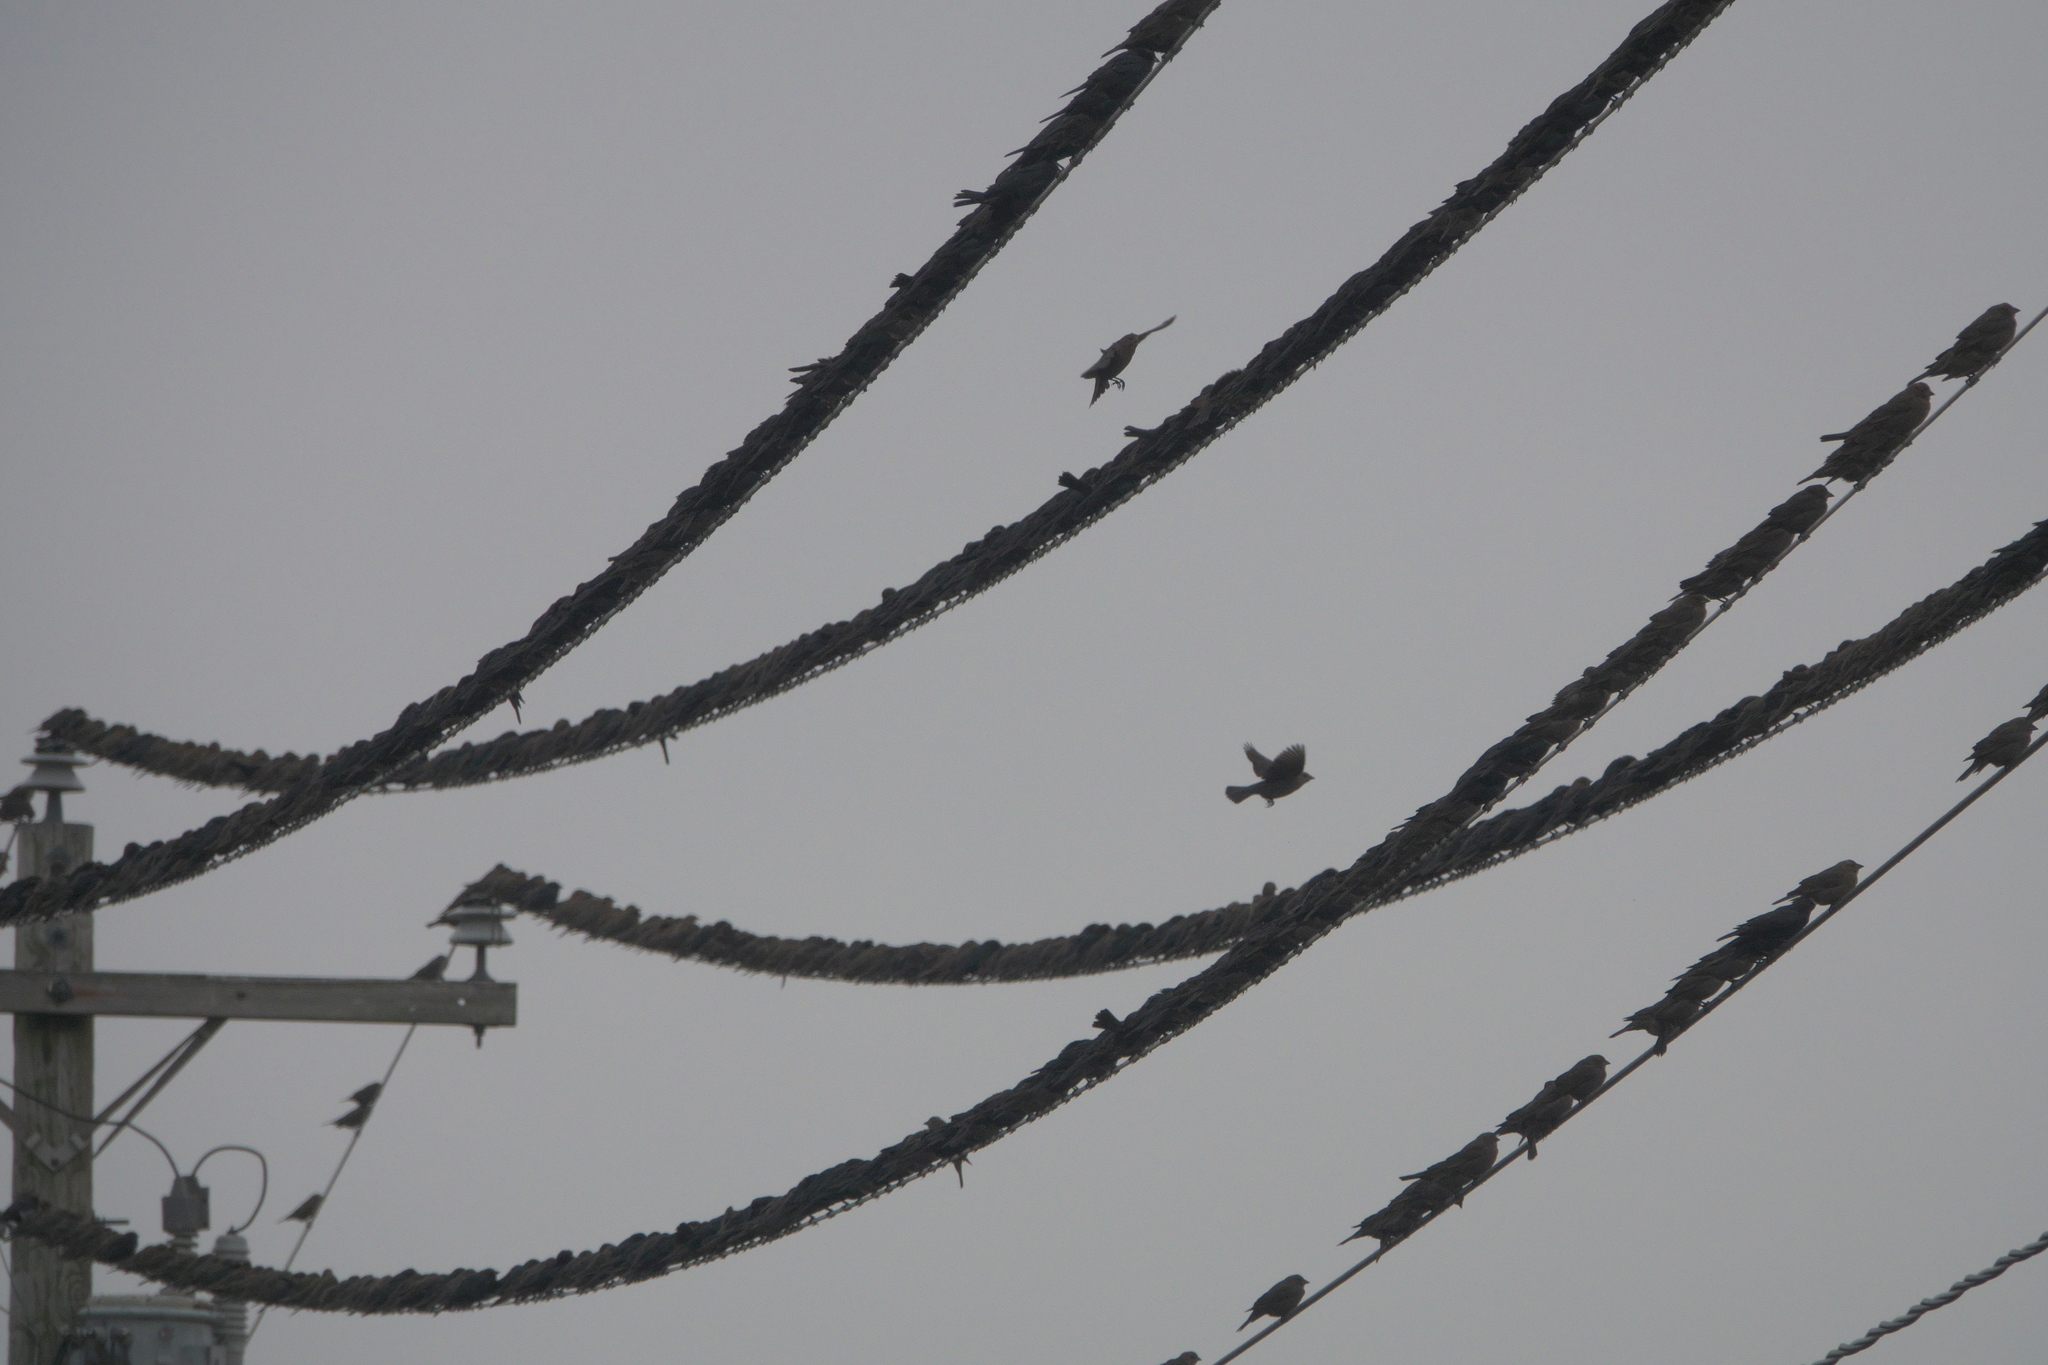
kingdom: Animalia
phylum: Chordata
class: Aves
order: Passeriformes
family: Icteridae
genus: Molothrus
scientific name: Molothrus ater
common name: Brown-headed cowbird
